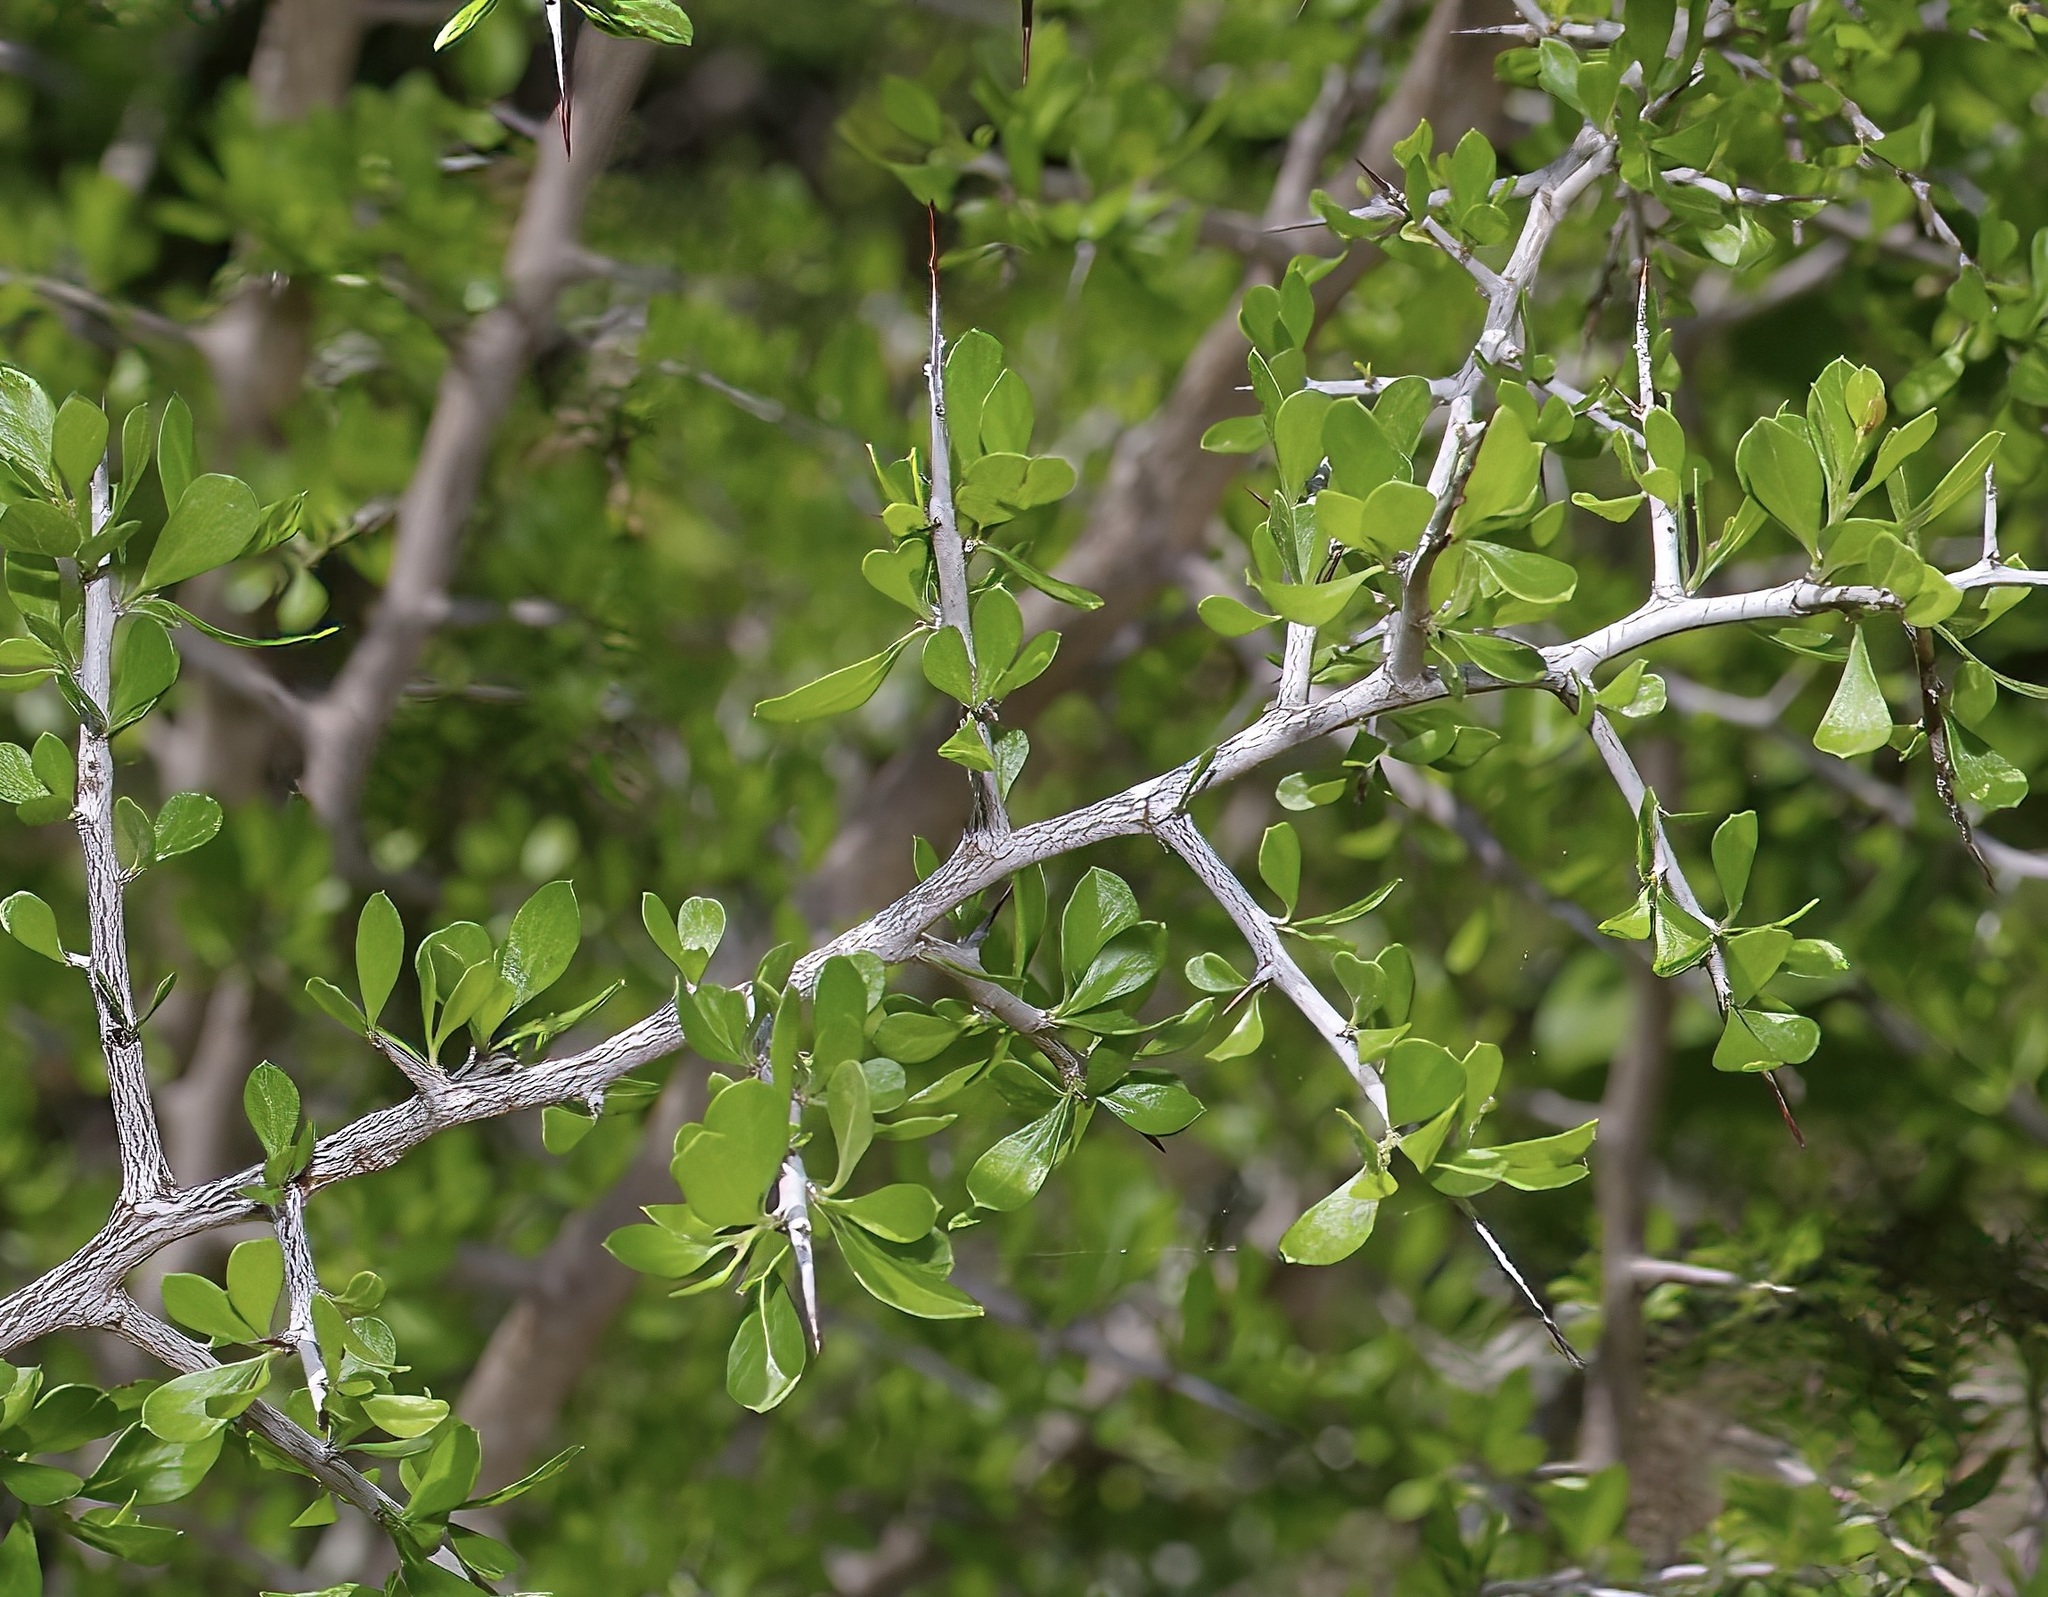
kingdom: Plantae
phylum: Tracheophyta
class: Magnoliopsida
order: Rosales
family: Rhamnaceae
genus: Condalia
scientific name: Condalia viridis
